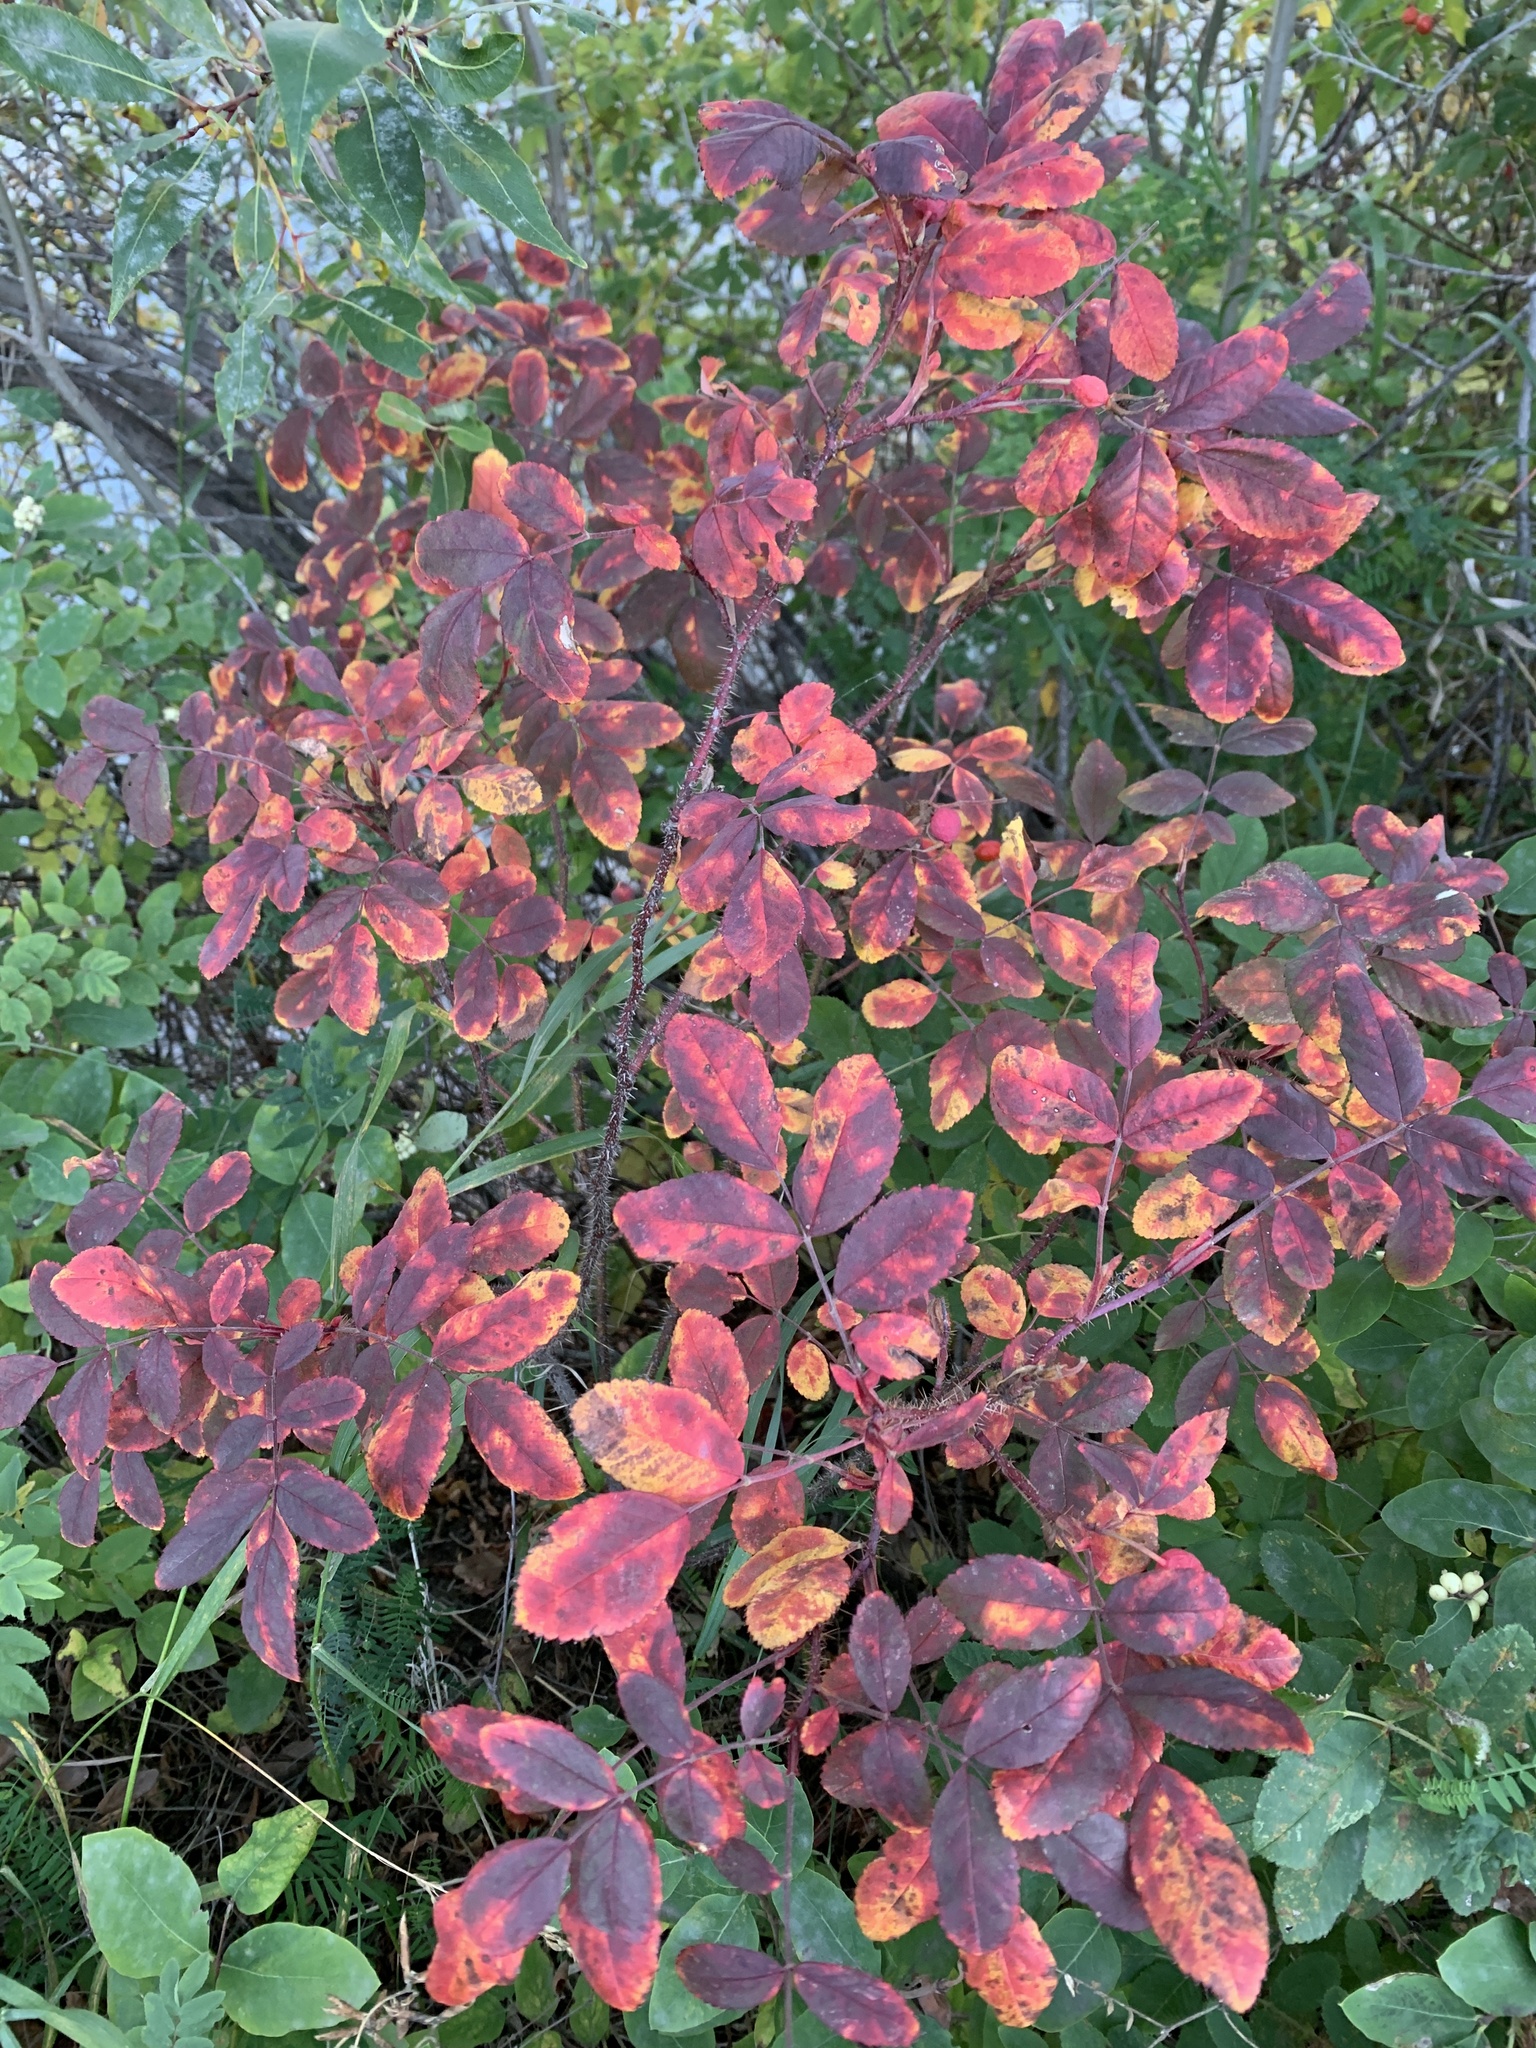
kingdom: Plantae
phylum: Tracheophyta
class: Magnoliopsida
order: Rosales
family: Rosaceae
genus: Rosa
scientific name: Rosa acicularis
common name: Prickly rose
